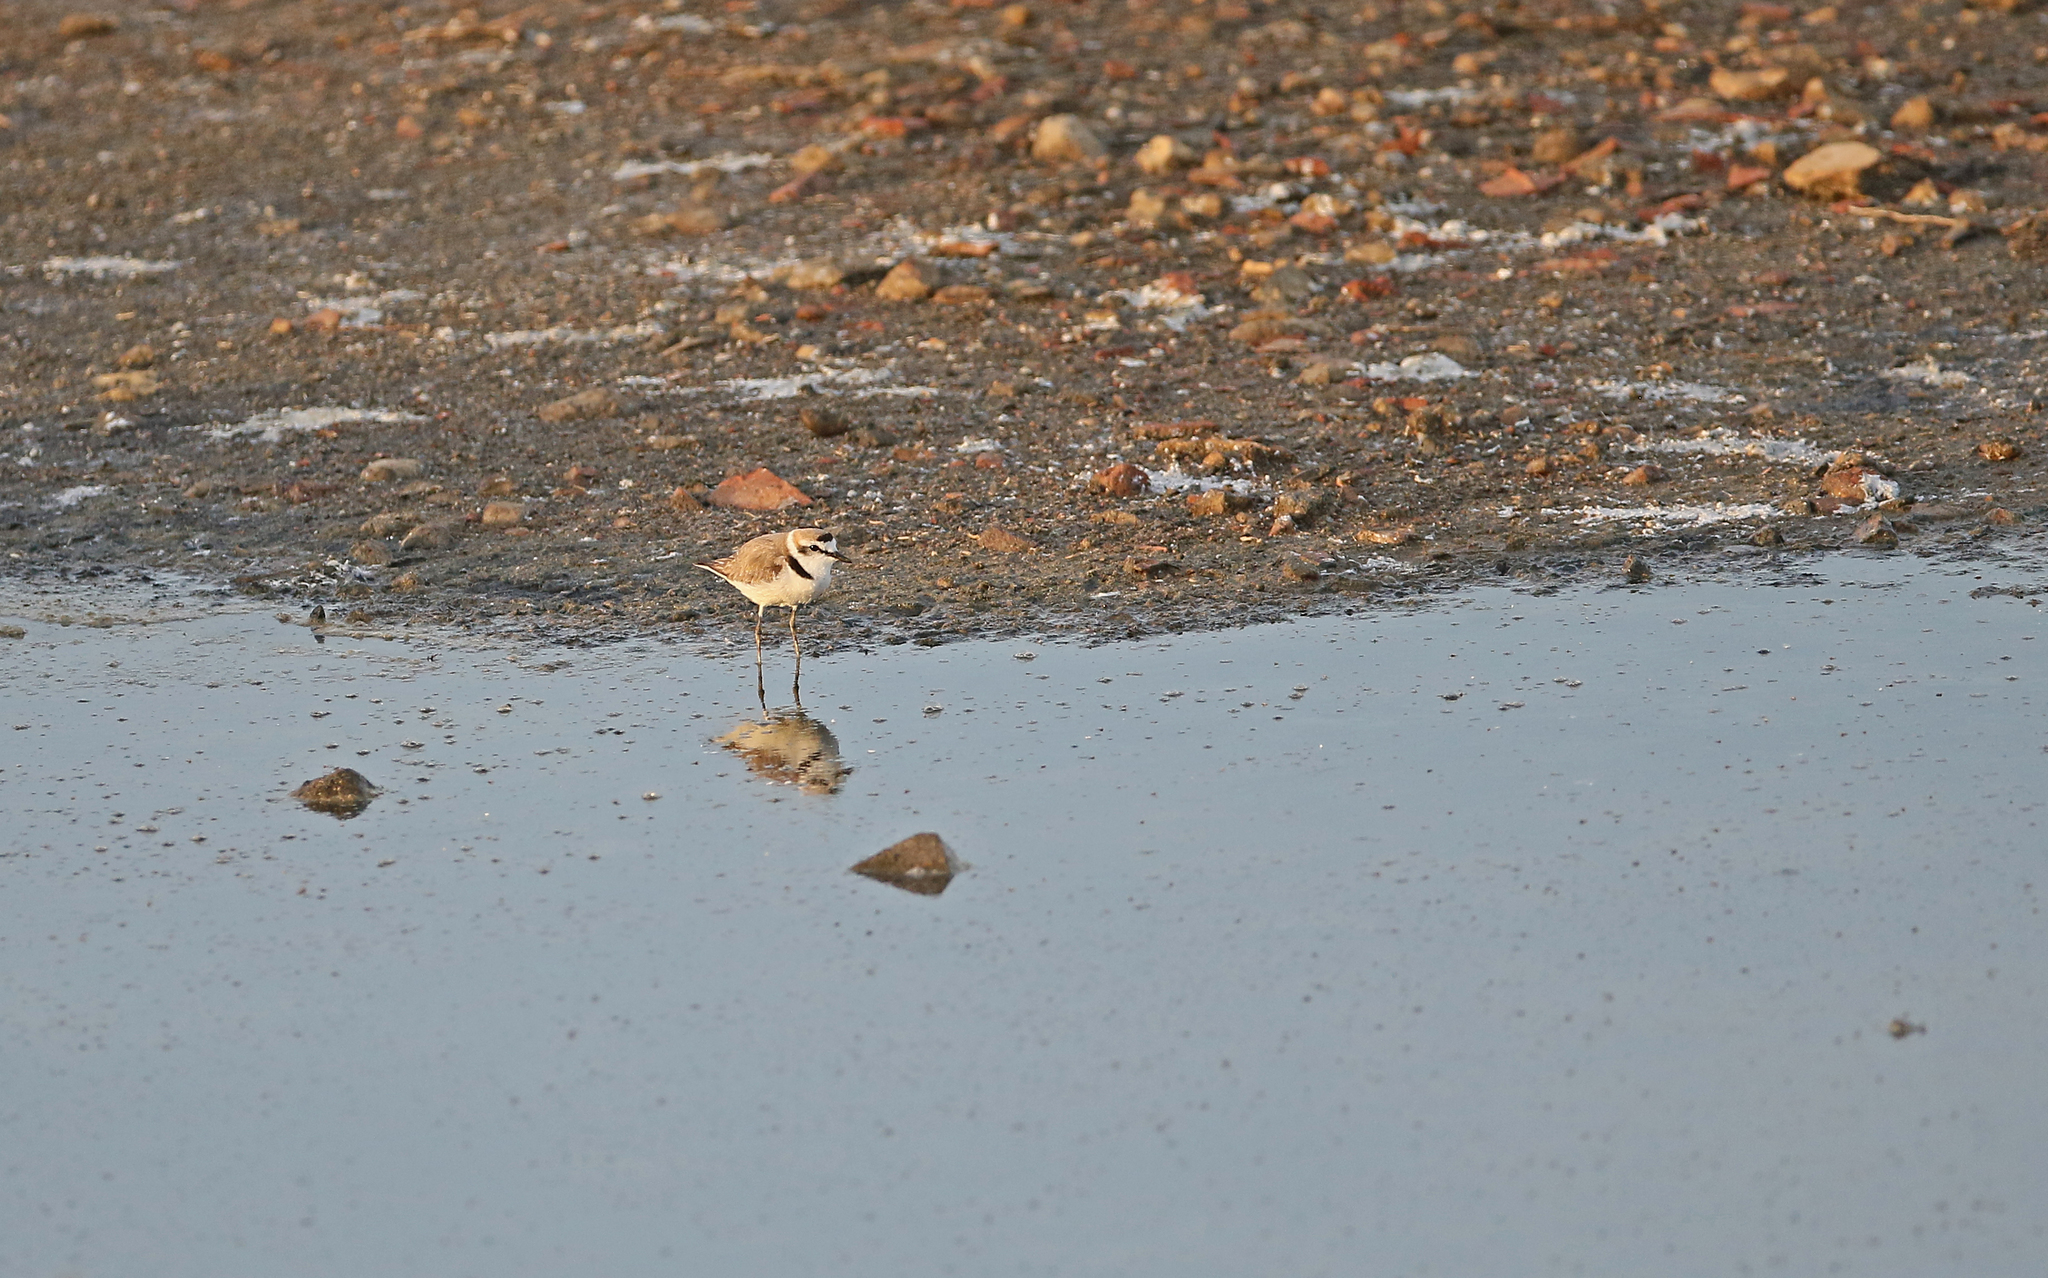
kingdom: Animalia
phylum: Chordata
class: Aves
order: Charadriiformes
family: Charadriidae
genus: Charadrius
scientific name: Charadrius alexandrinus
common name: Kentish plover
